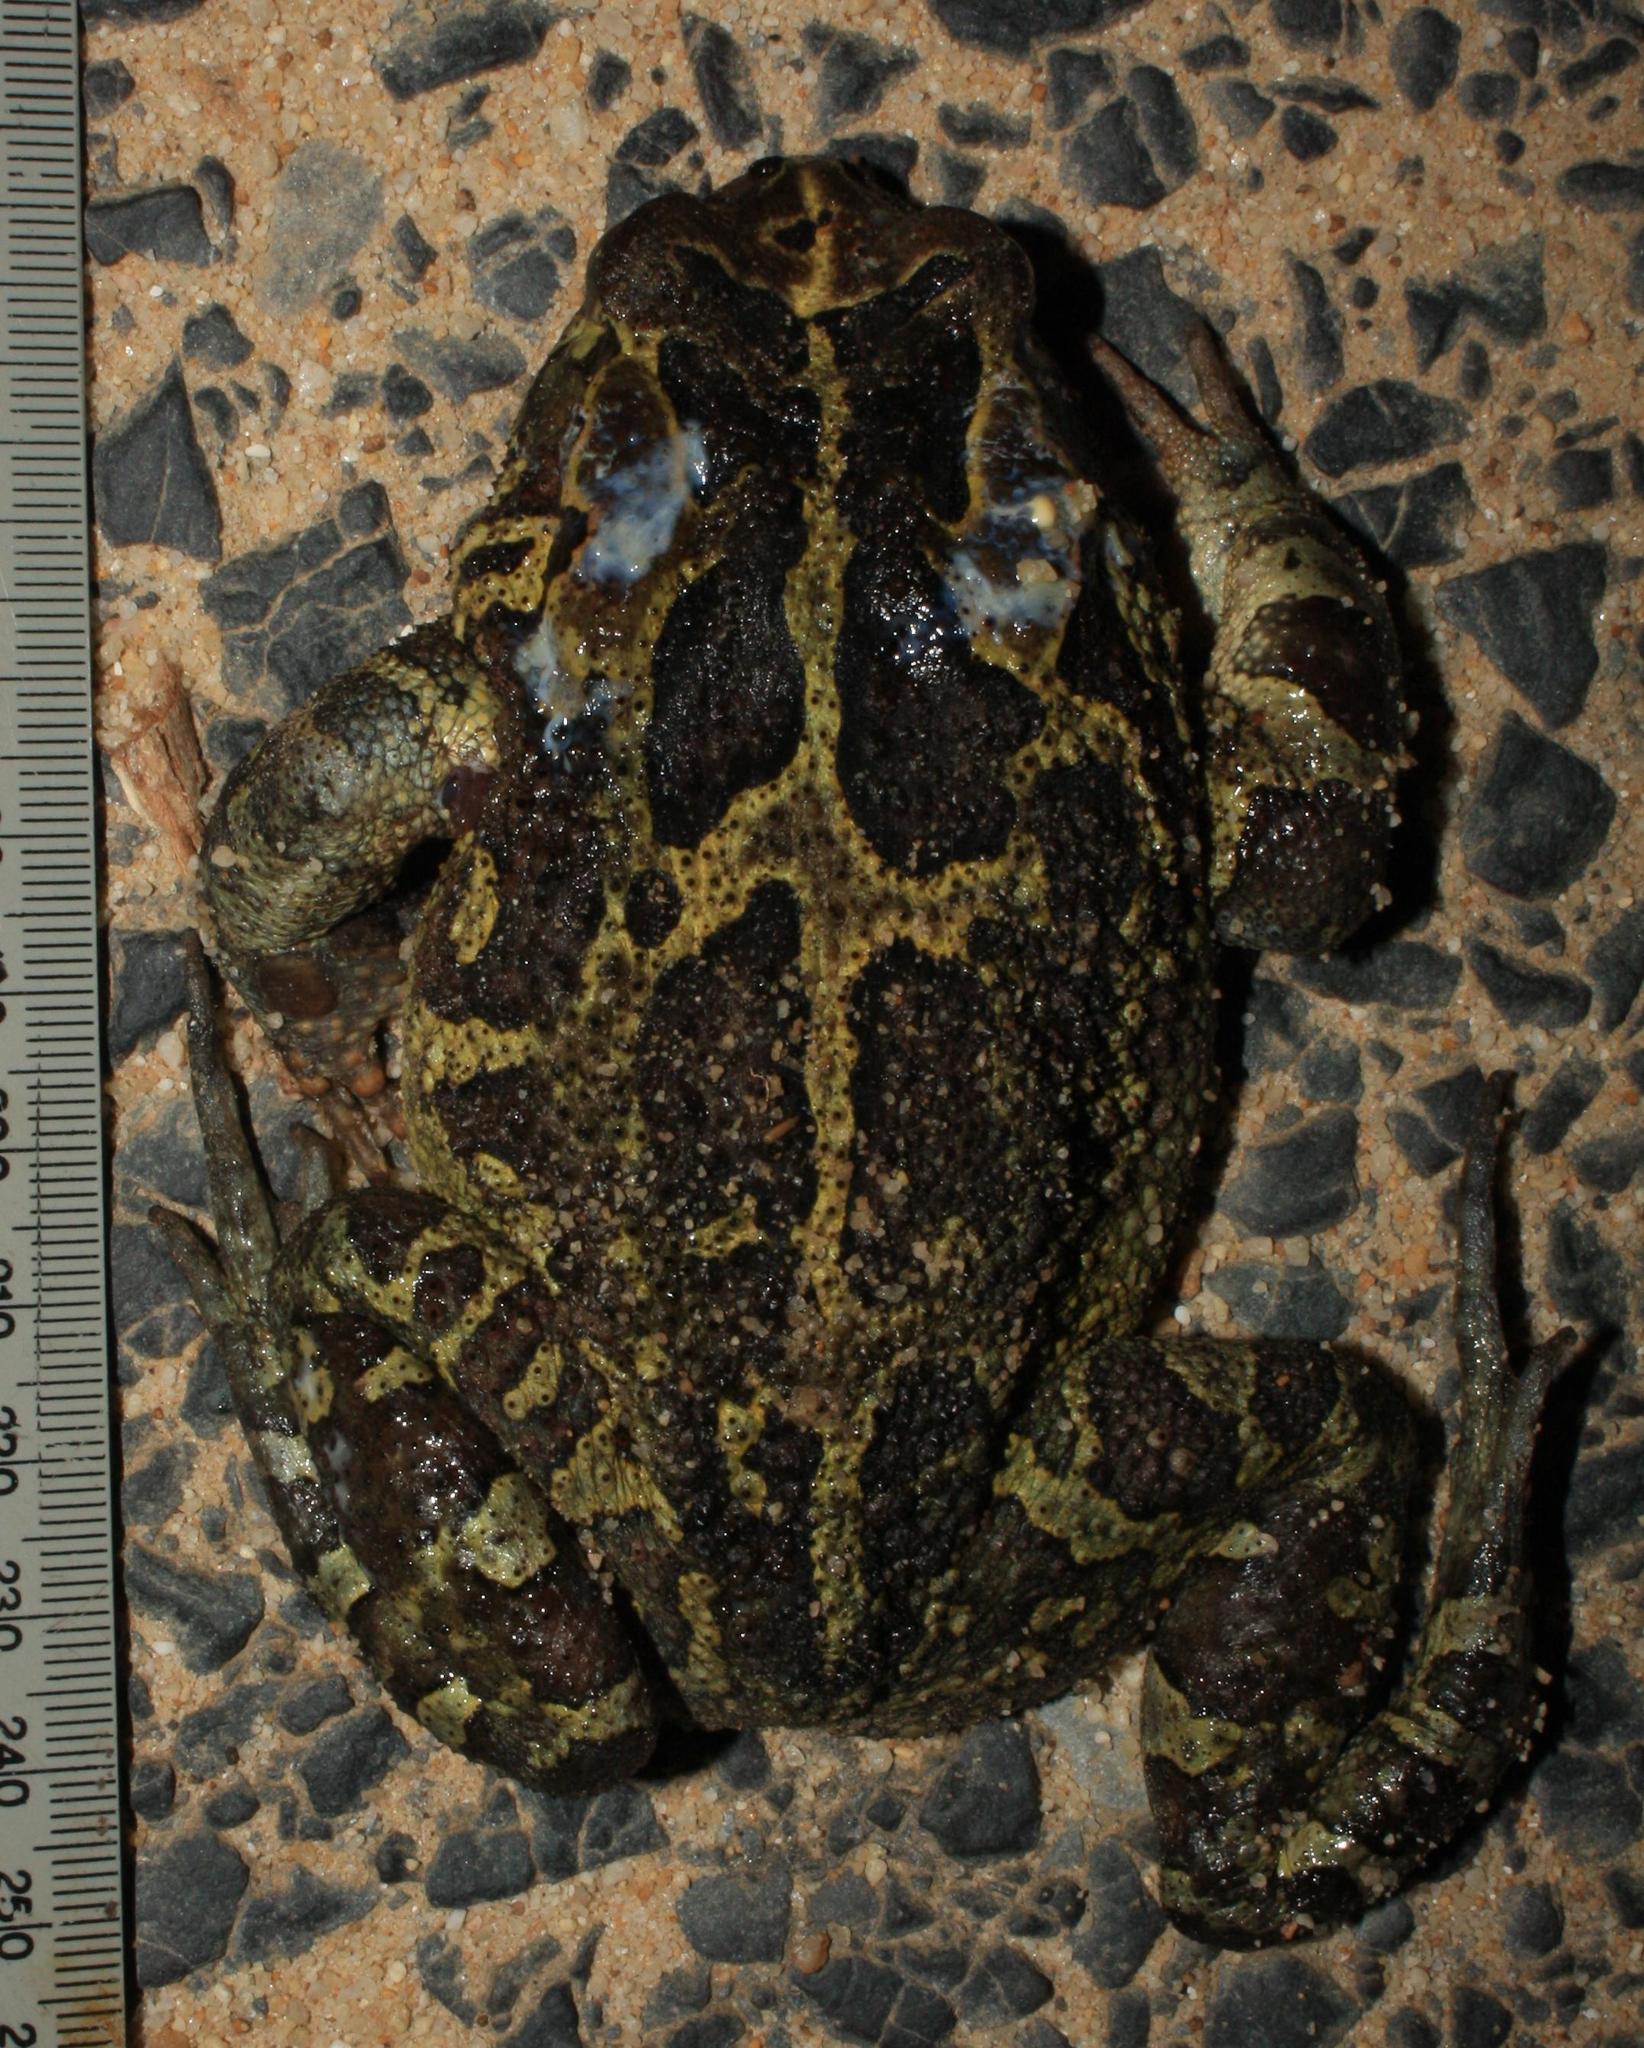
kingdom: Animalia
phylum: Chordata
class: Amphibia
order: Anura
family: Bufonidae
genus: Sclerophrys
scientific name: Sclerophrys pantherina
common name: Panther toad
